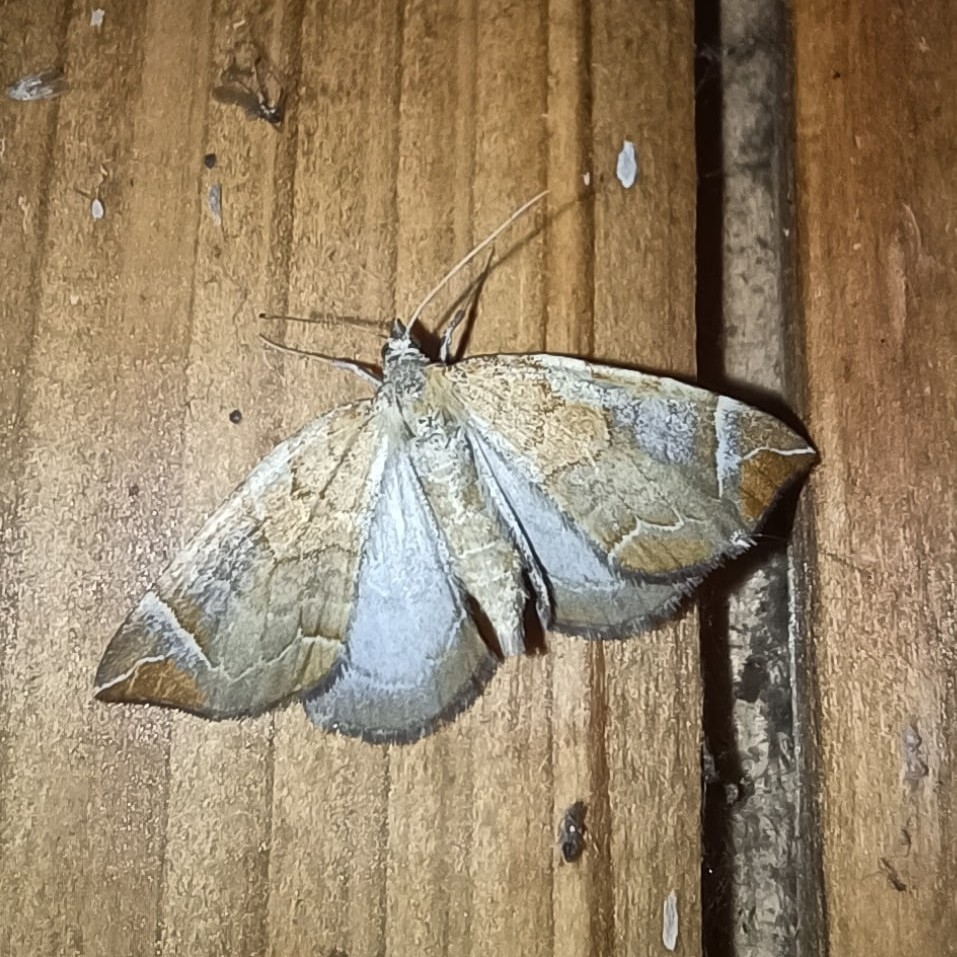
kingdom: Animalia
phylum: Arthropoda
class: Insecta
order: Lepidoptera
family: Geometridae
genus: Eulithis
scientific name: Eulithis testata
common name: Chevron
